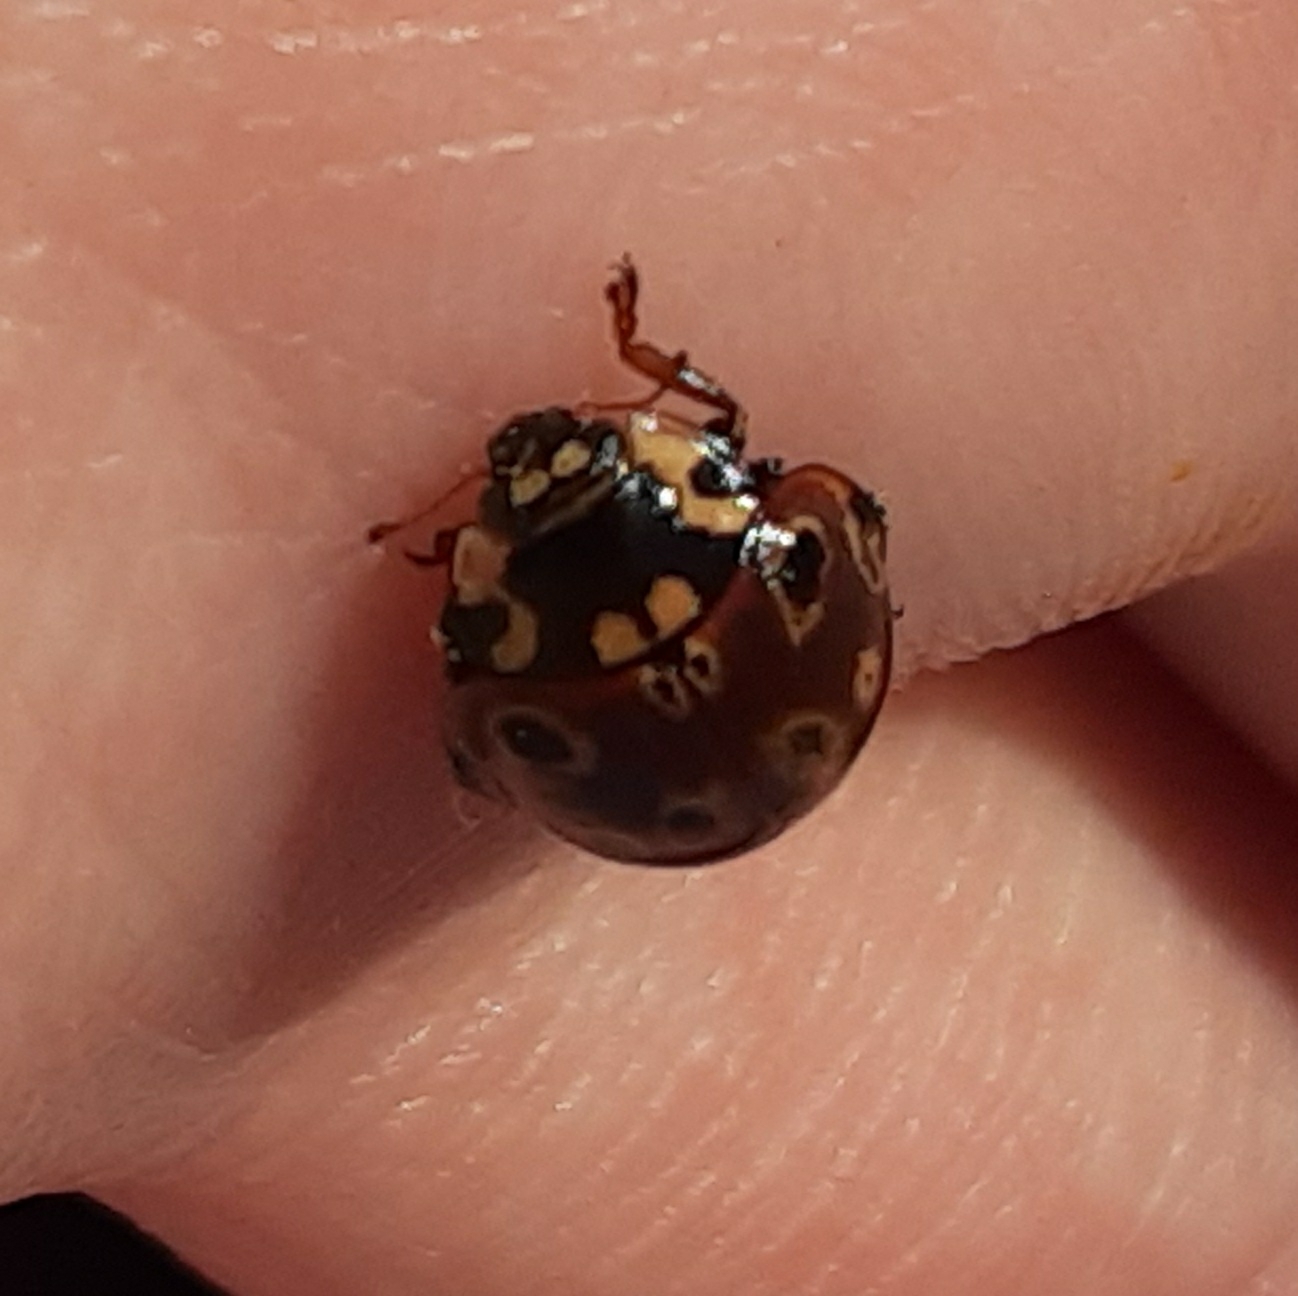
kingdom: Animalia
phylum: Arthropoda
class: Insecta
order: Coleoptera
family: Coccinellidae
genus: Anatis
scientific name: Anatis mali
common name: Eye-spotted lady beetle
